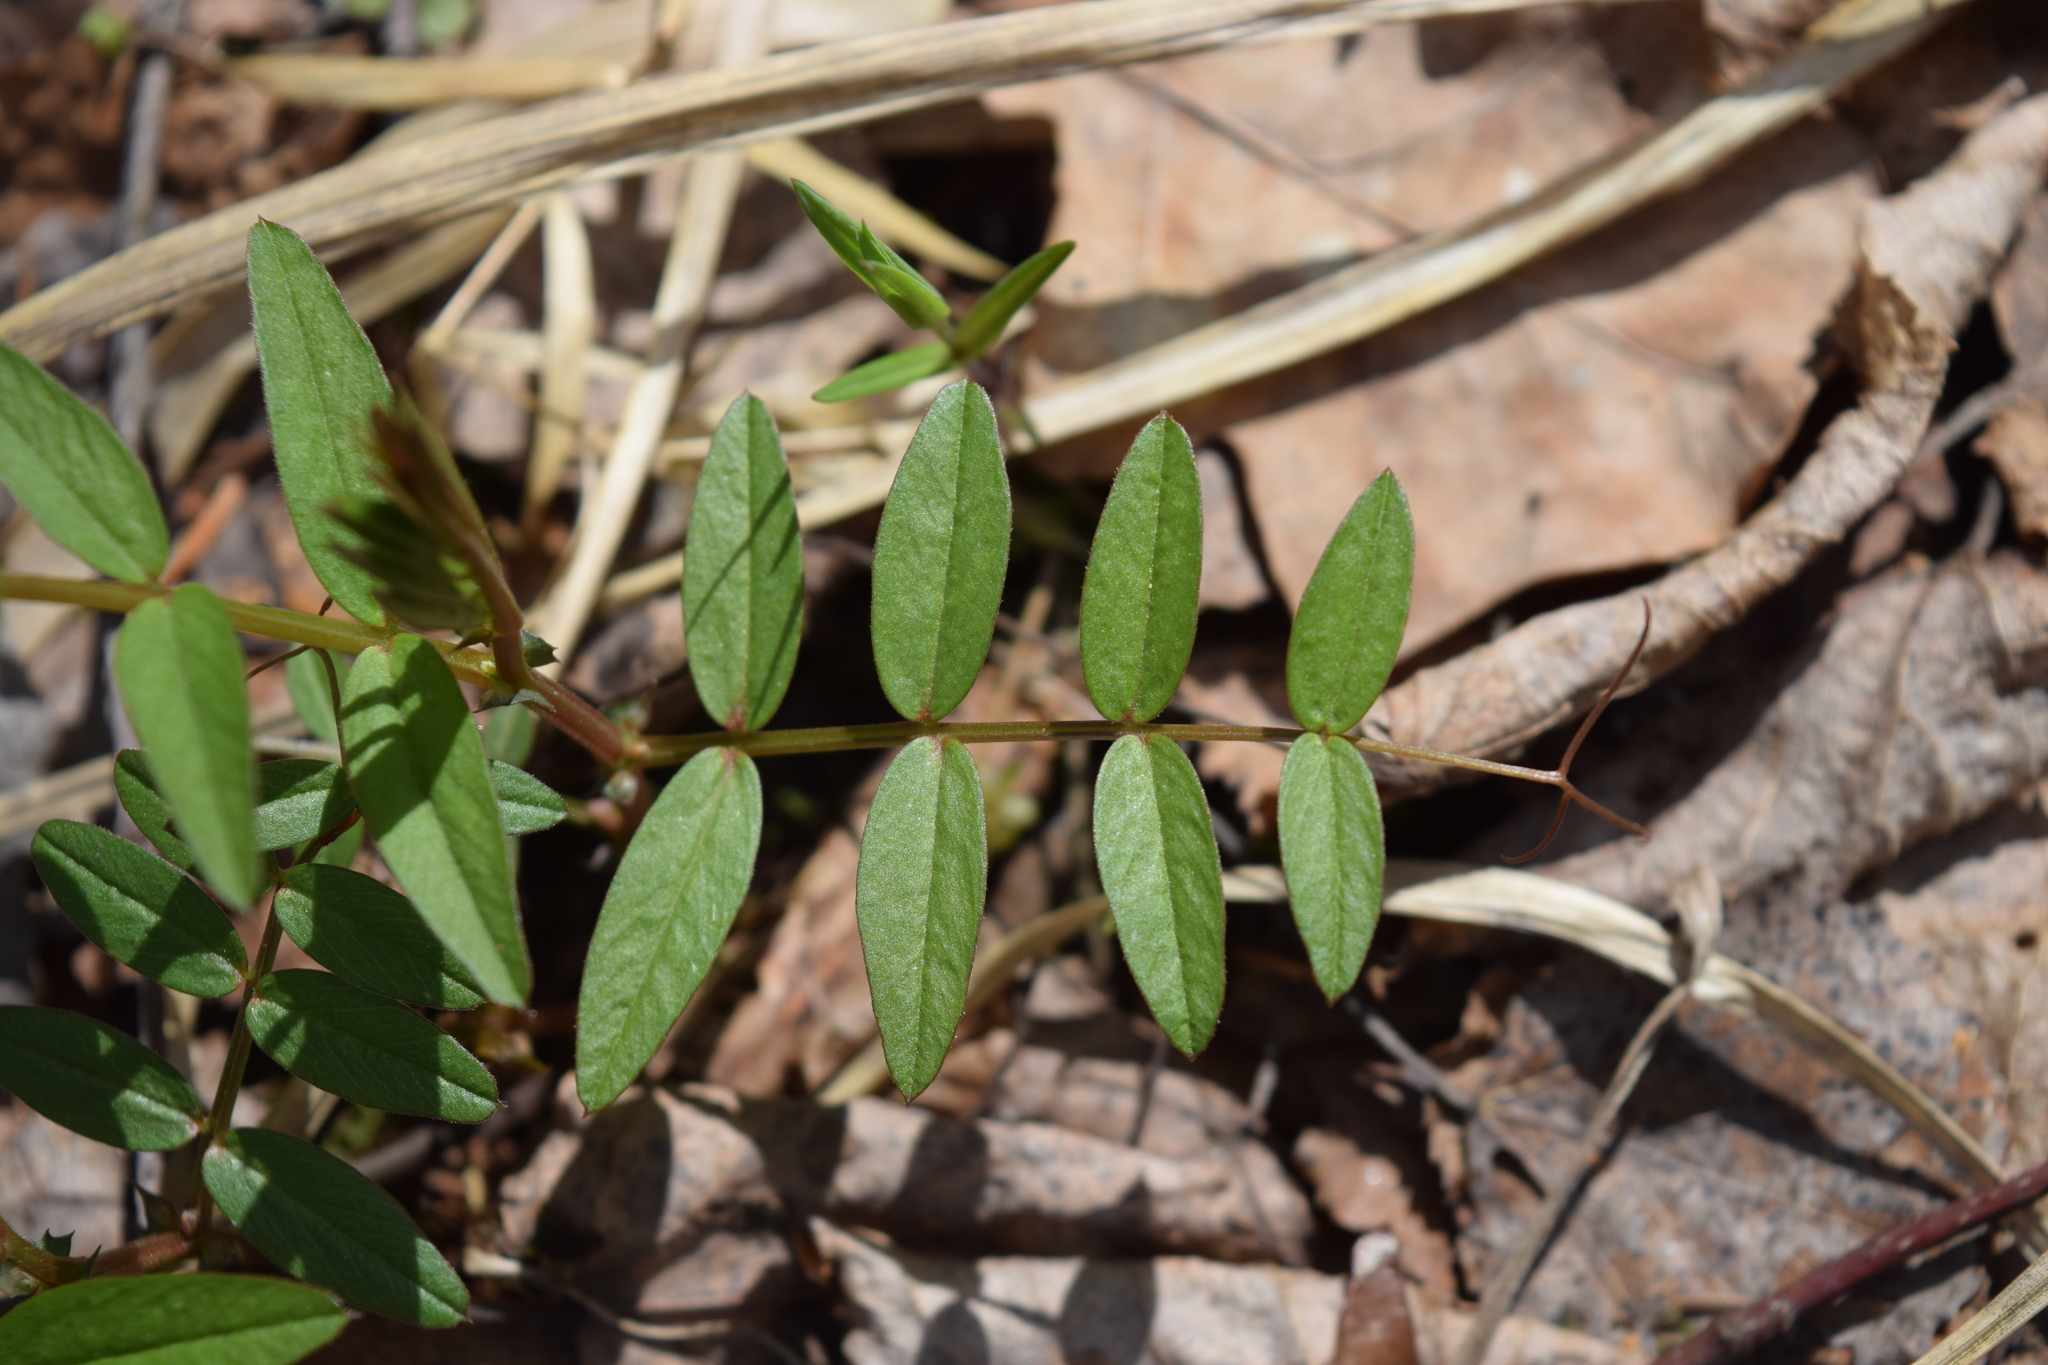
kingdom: Plantae
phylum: Tracheophyta
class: Magnoliopsida
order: Fabales
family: Fabaceae
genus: Vicia
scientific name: Vicia sepium
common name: Bush vetch
